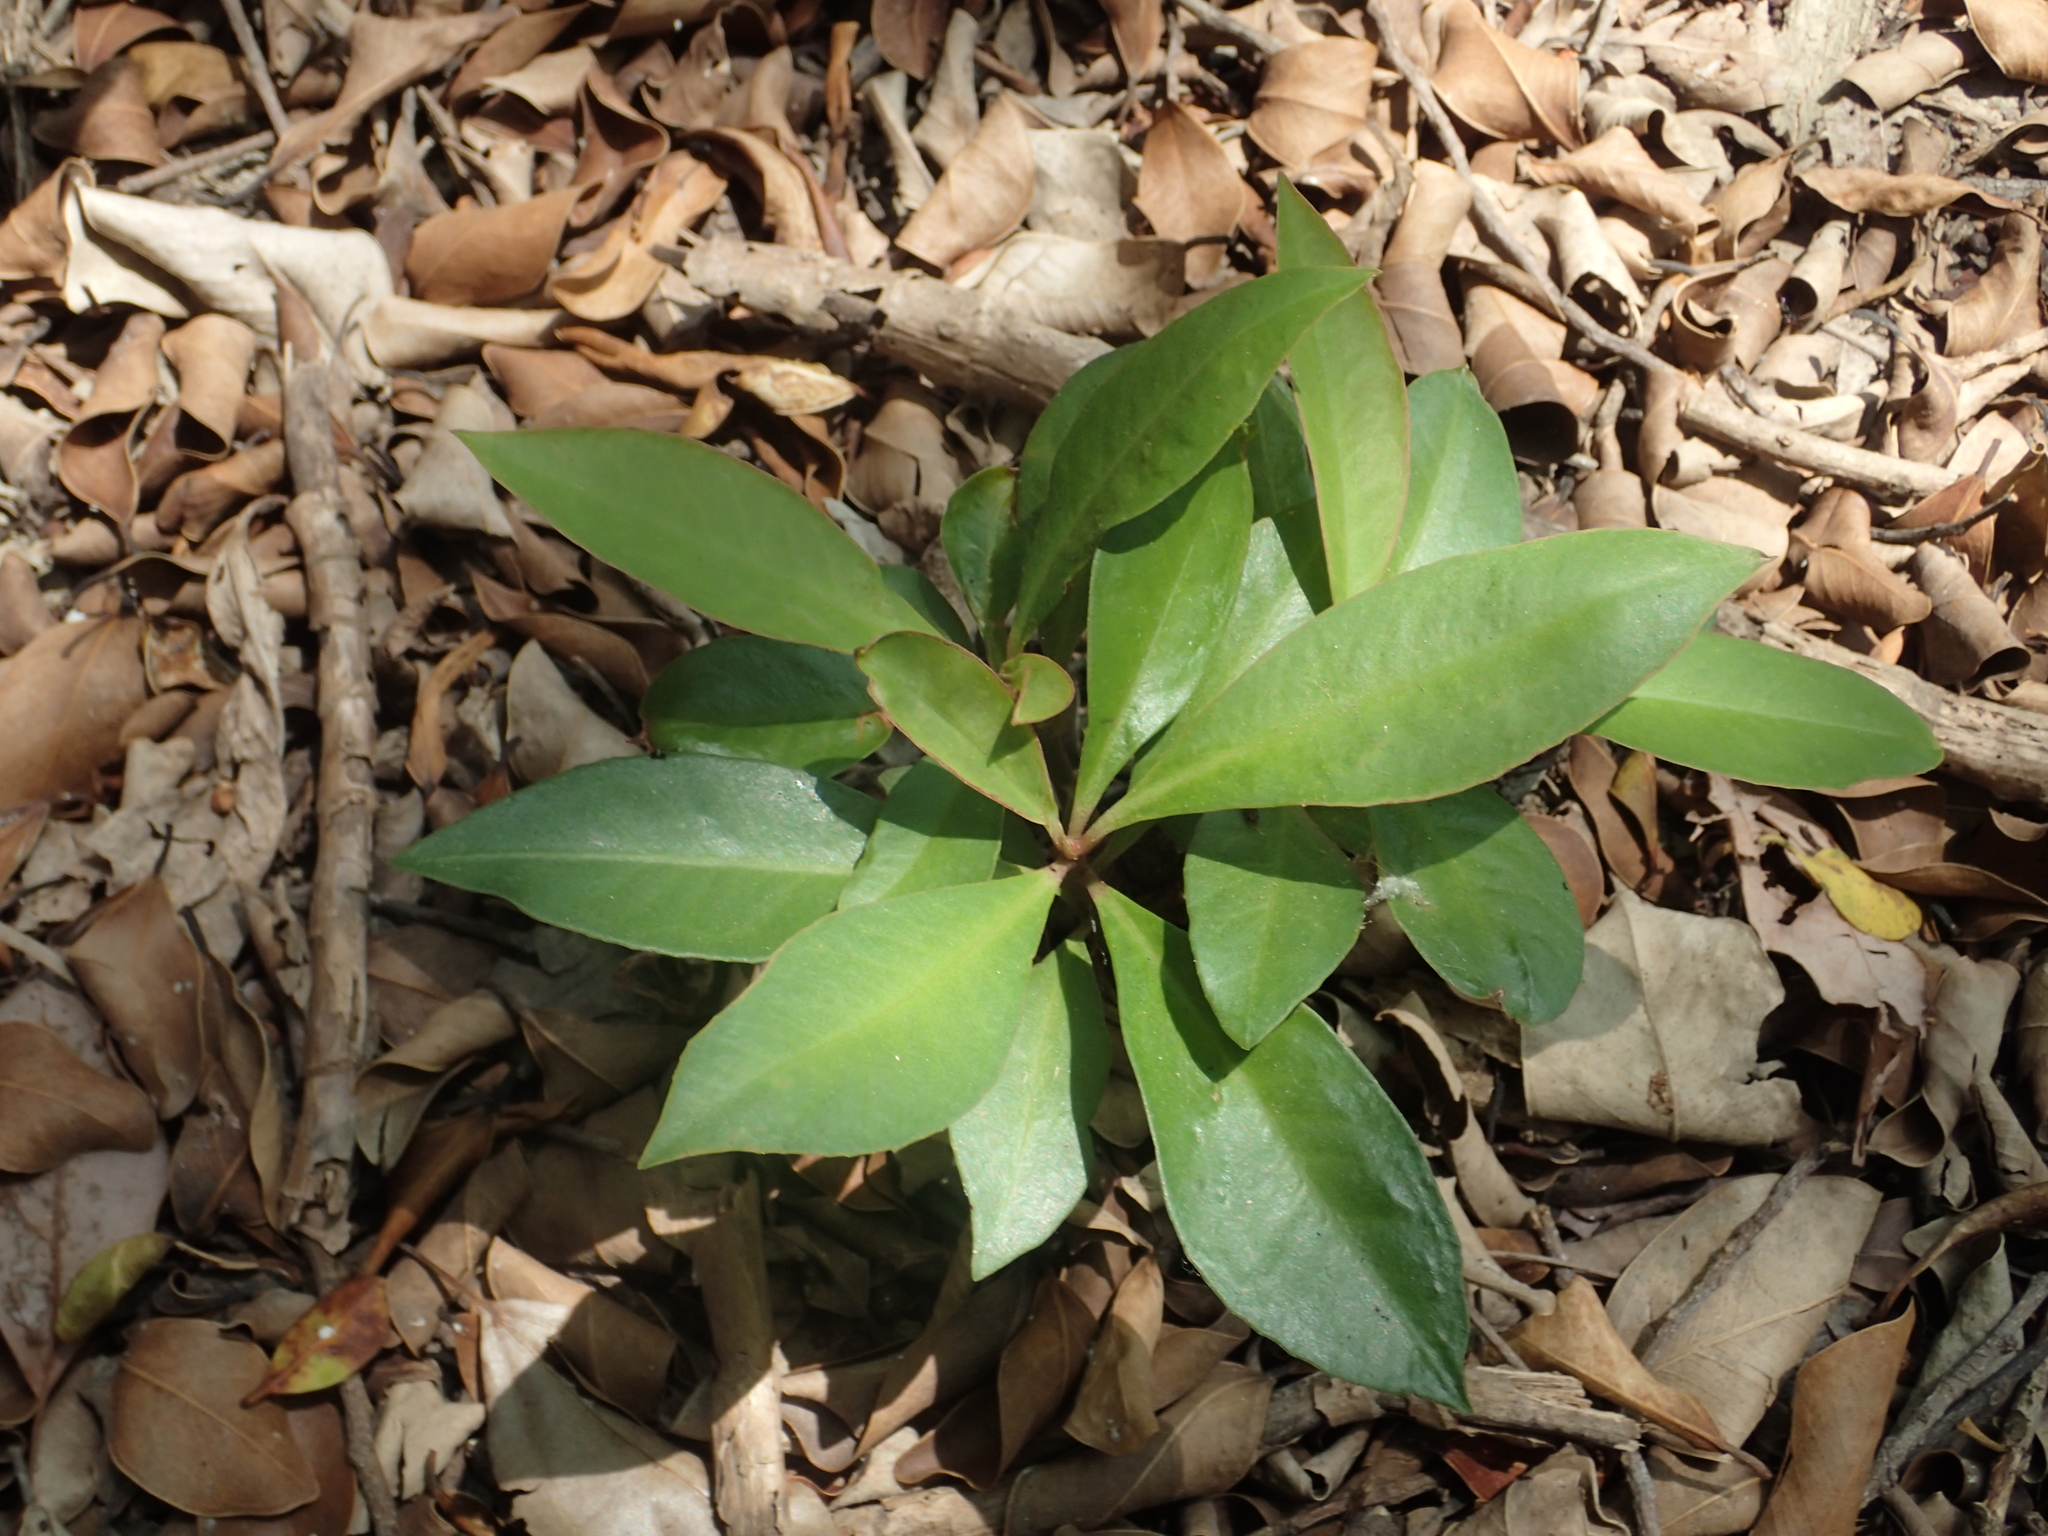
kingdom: Plantae
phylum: Tracheophyta
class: Magnoliopsida
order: Ericales
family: Primulaceae
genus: Ardisia
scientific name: Ardisia elliptica
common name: Shoebutton
